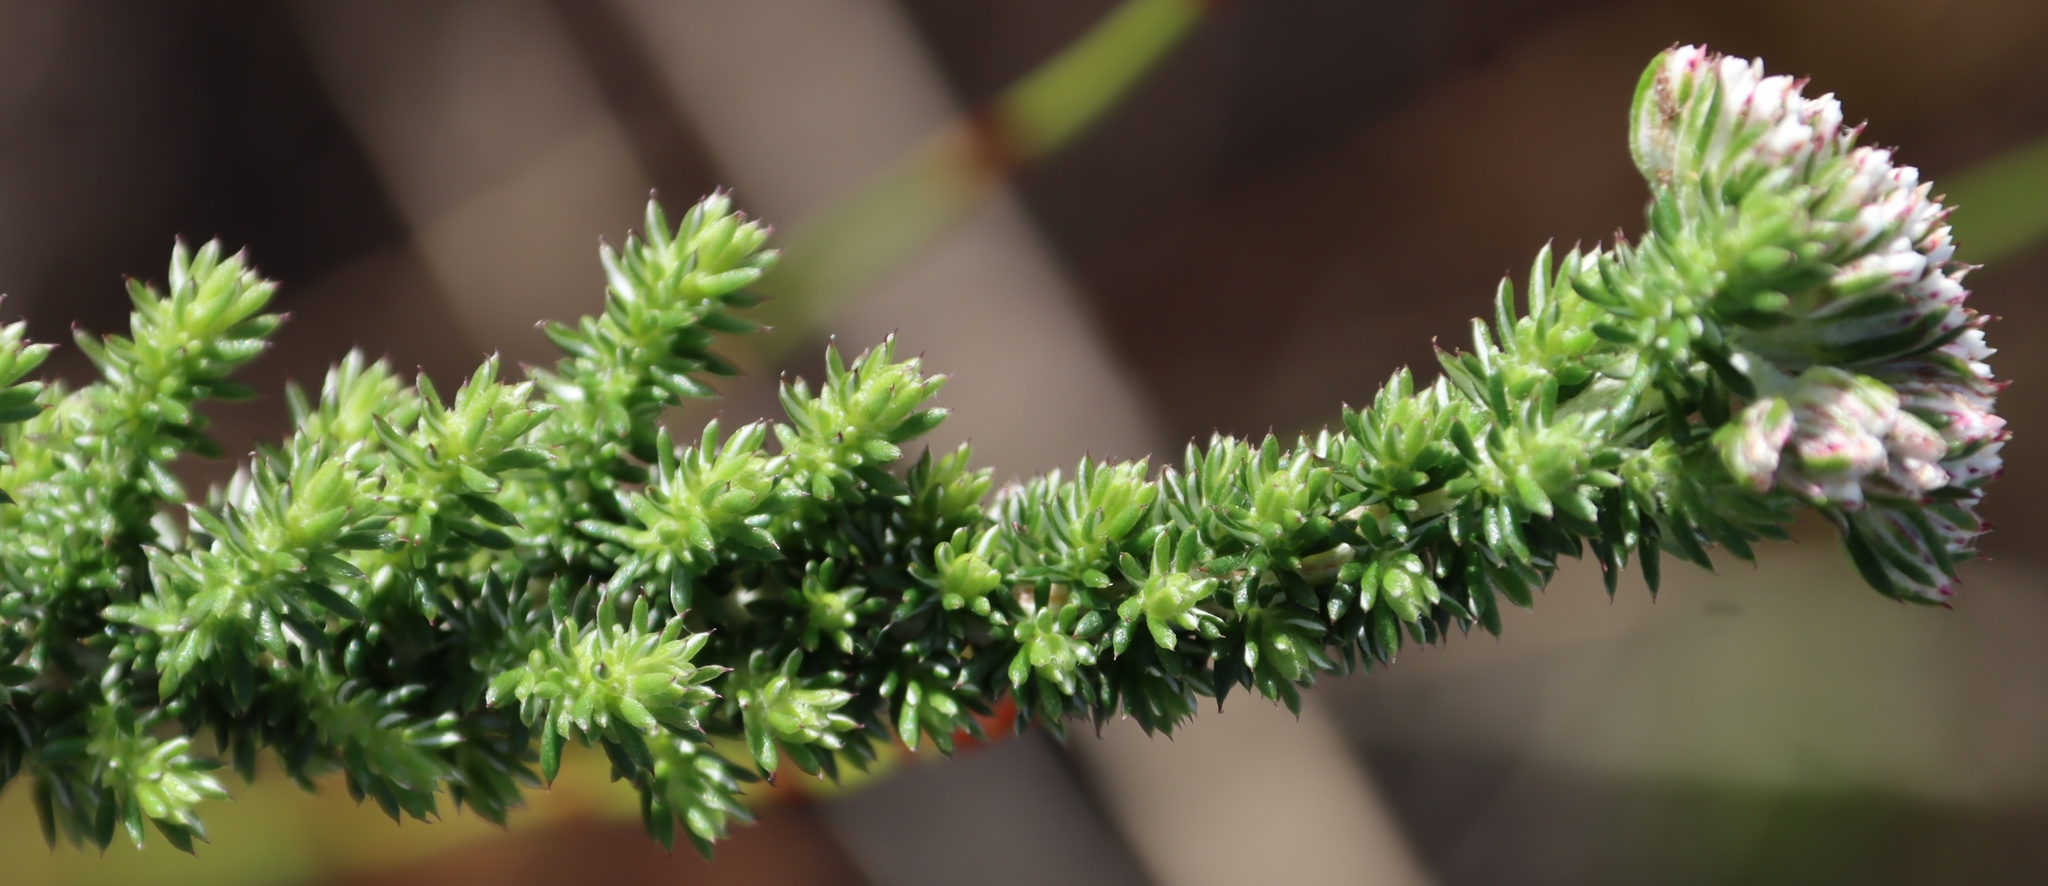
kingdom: Plantae
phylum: Tracheophyta
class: Magnoliopsida
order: Asterales
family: Asteraceae
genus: Metalasia
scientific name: Metalasia brevifolia
